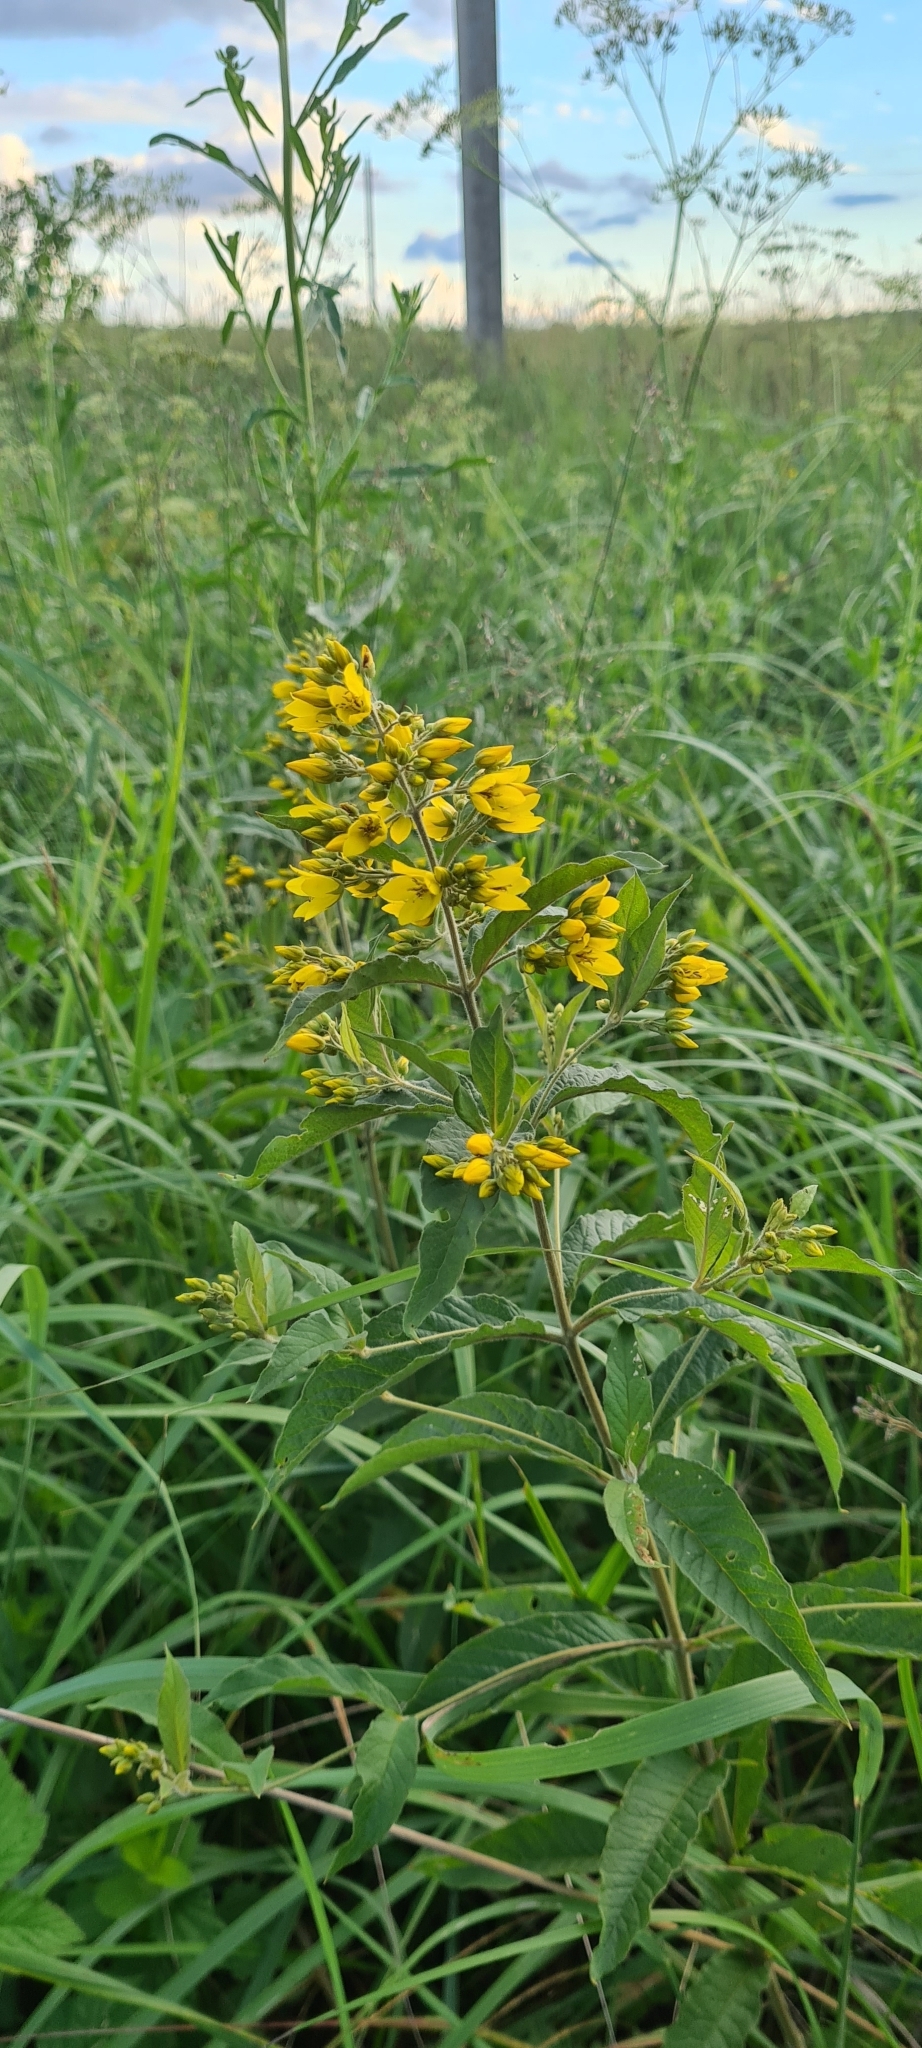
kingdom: Plantae
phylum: Tracheophyta
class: Magnoliopsida
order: Ericales
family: Primulaceae
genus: Lysimachia
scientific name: Lysimachia vulgaris
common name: Yellow loosestrife
